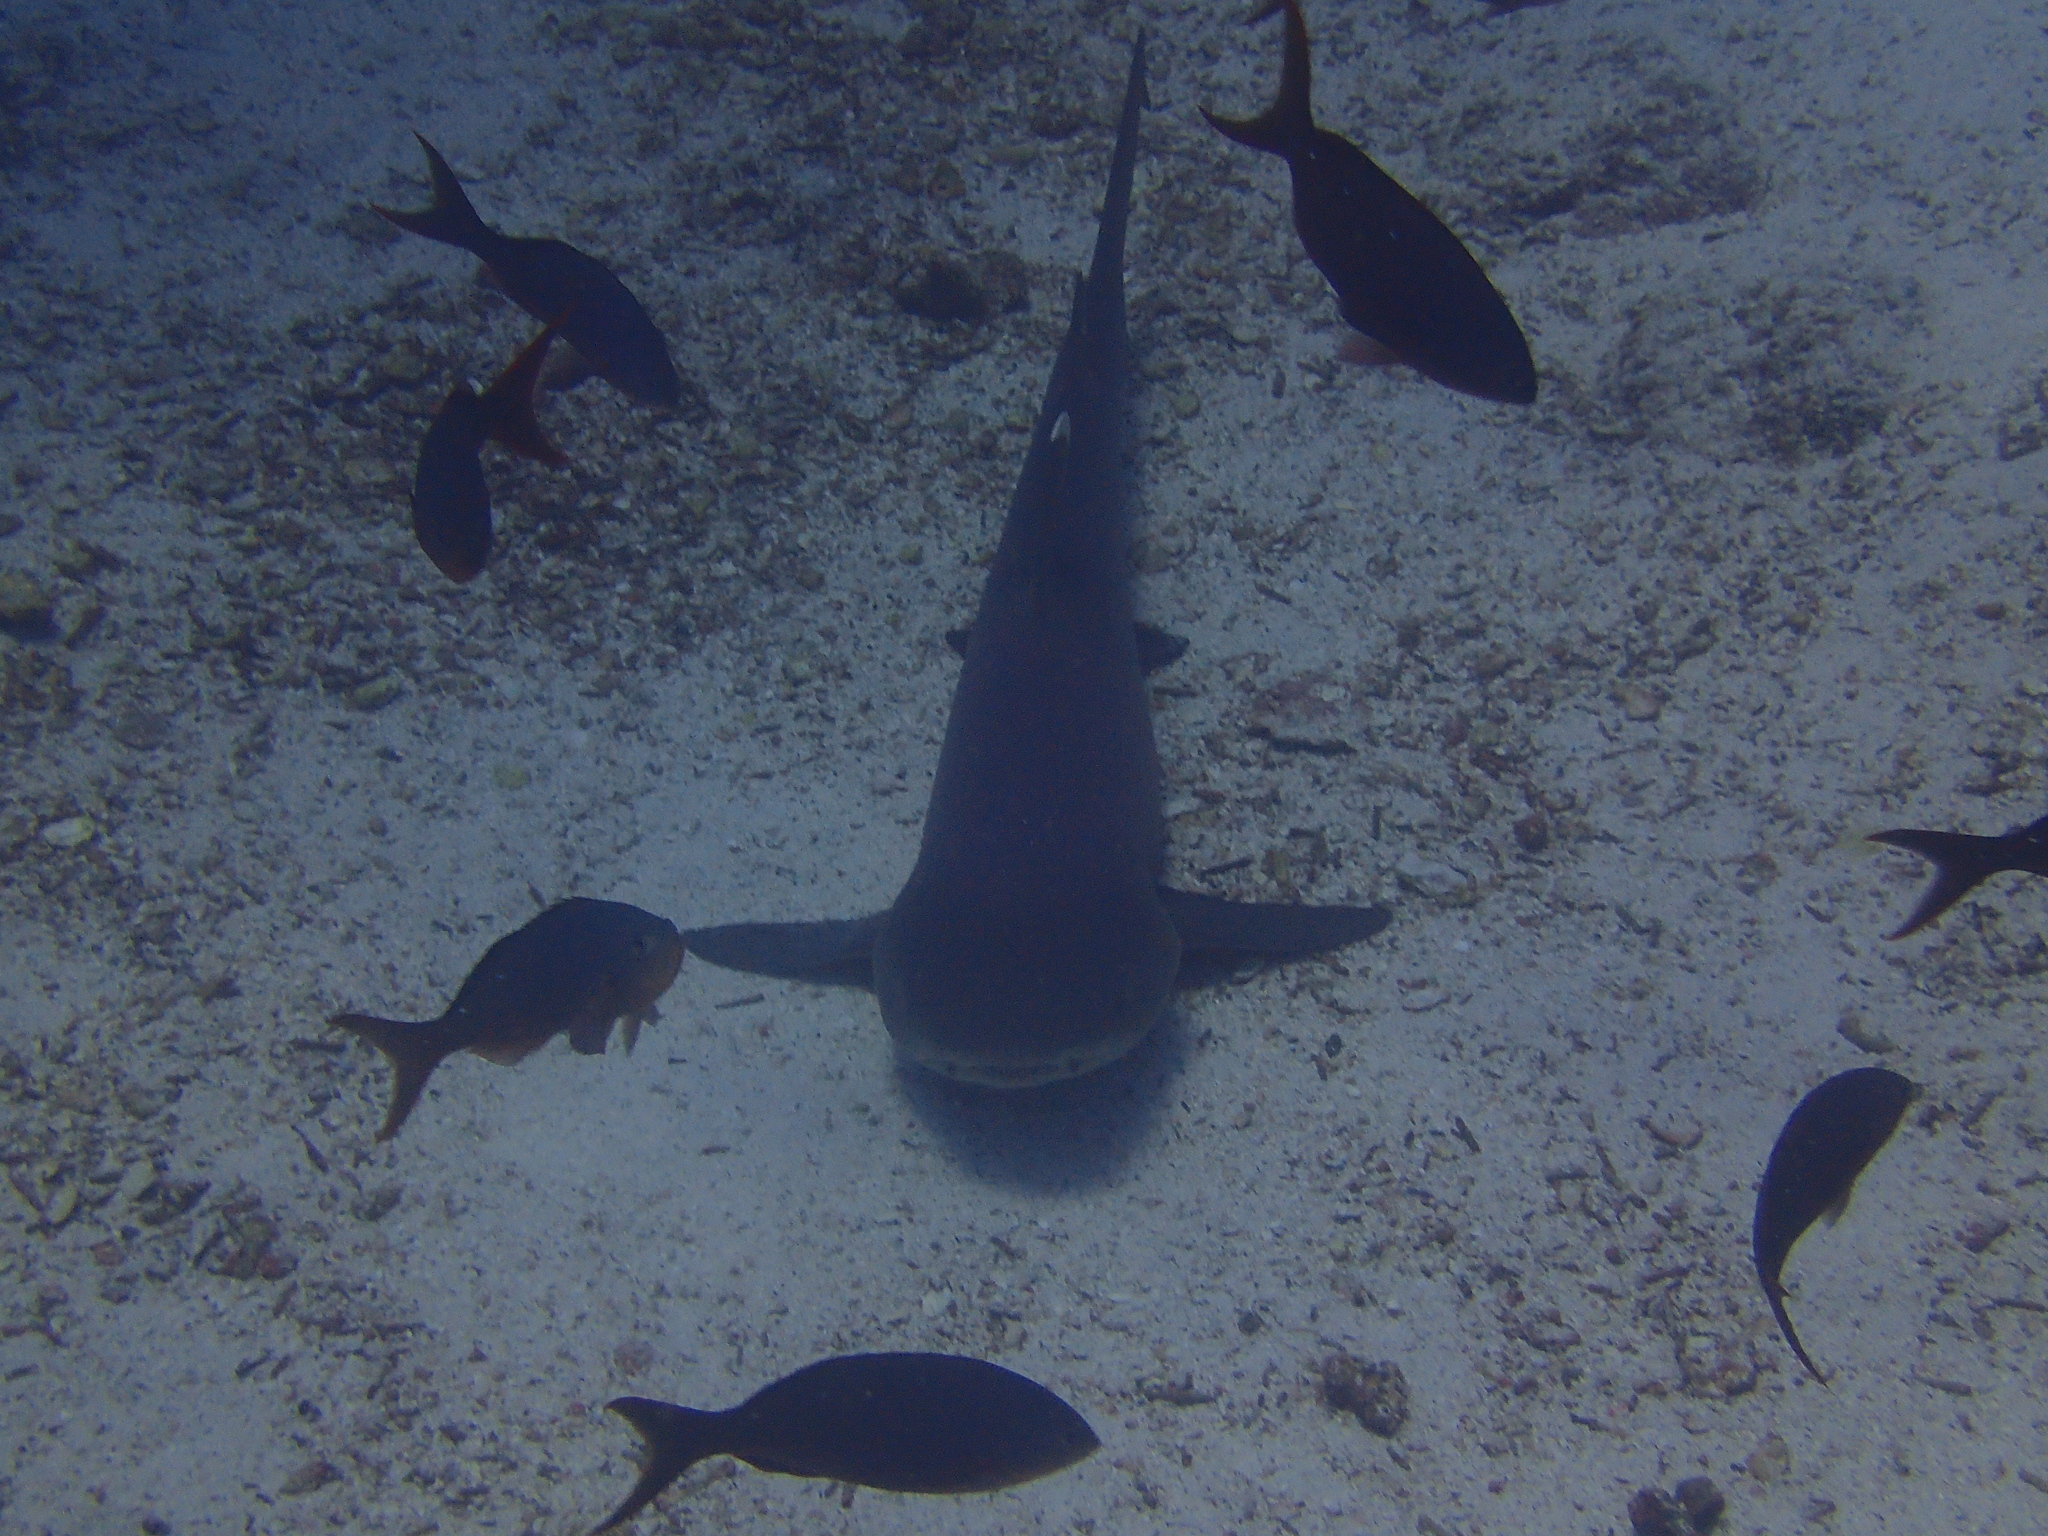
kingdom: Animalia
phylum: Chordata
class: Elasmobranchii
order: Carcharhiniformes
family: Carcharhinidae
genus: Triaenodon
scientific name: Triaenodon obesus
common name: Whitetip reef shark
